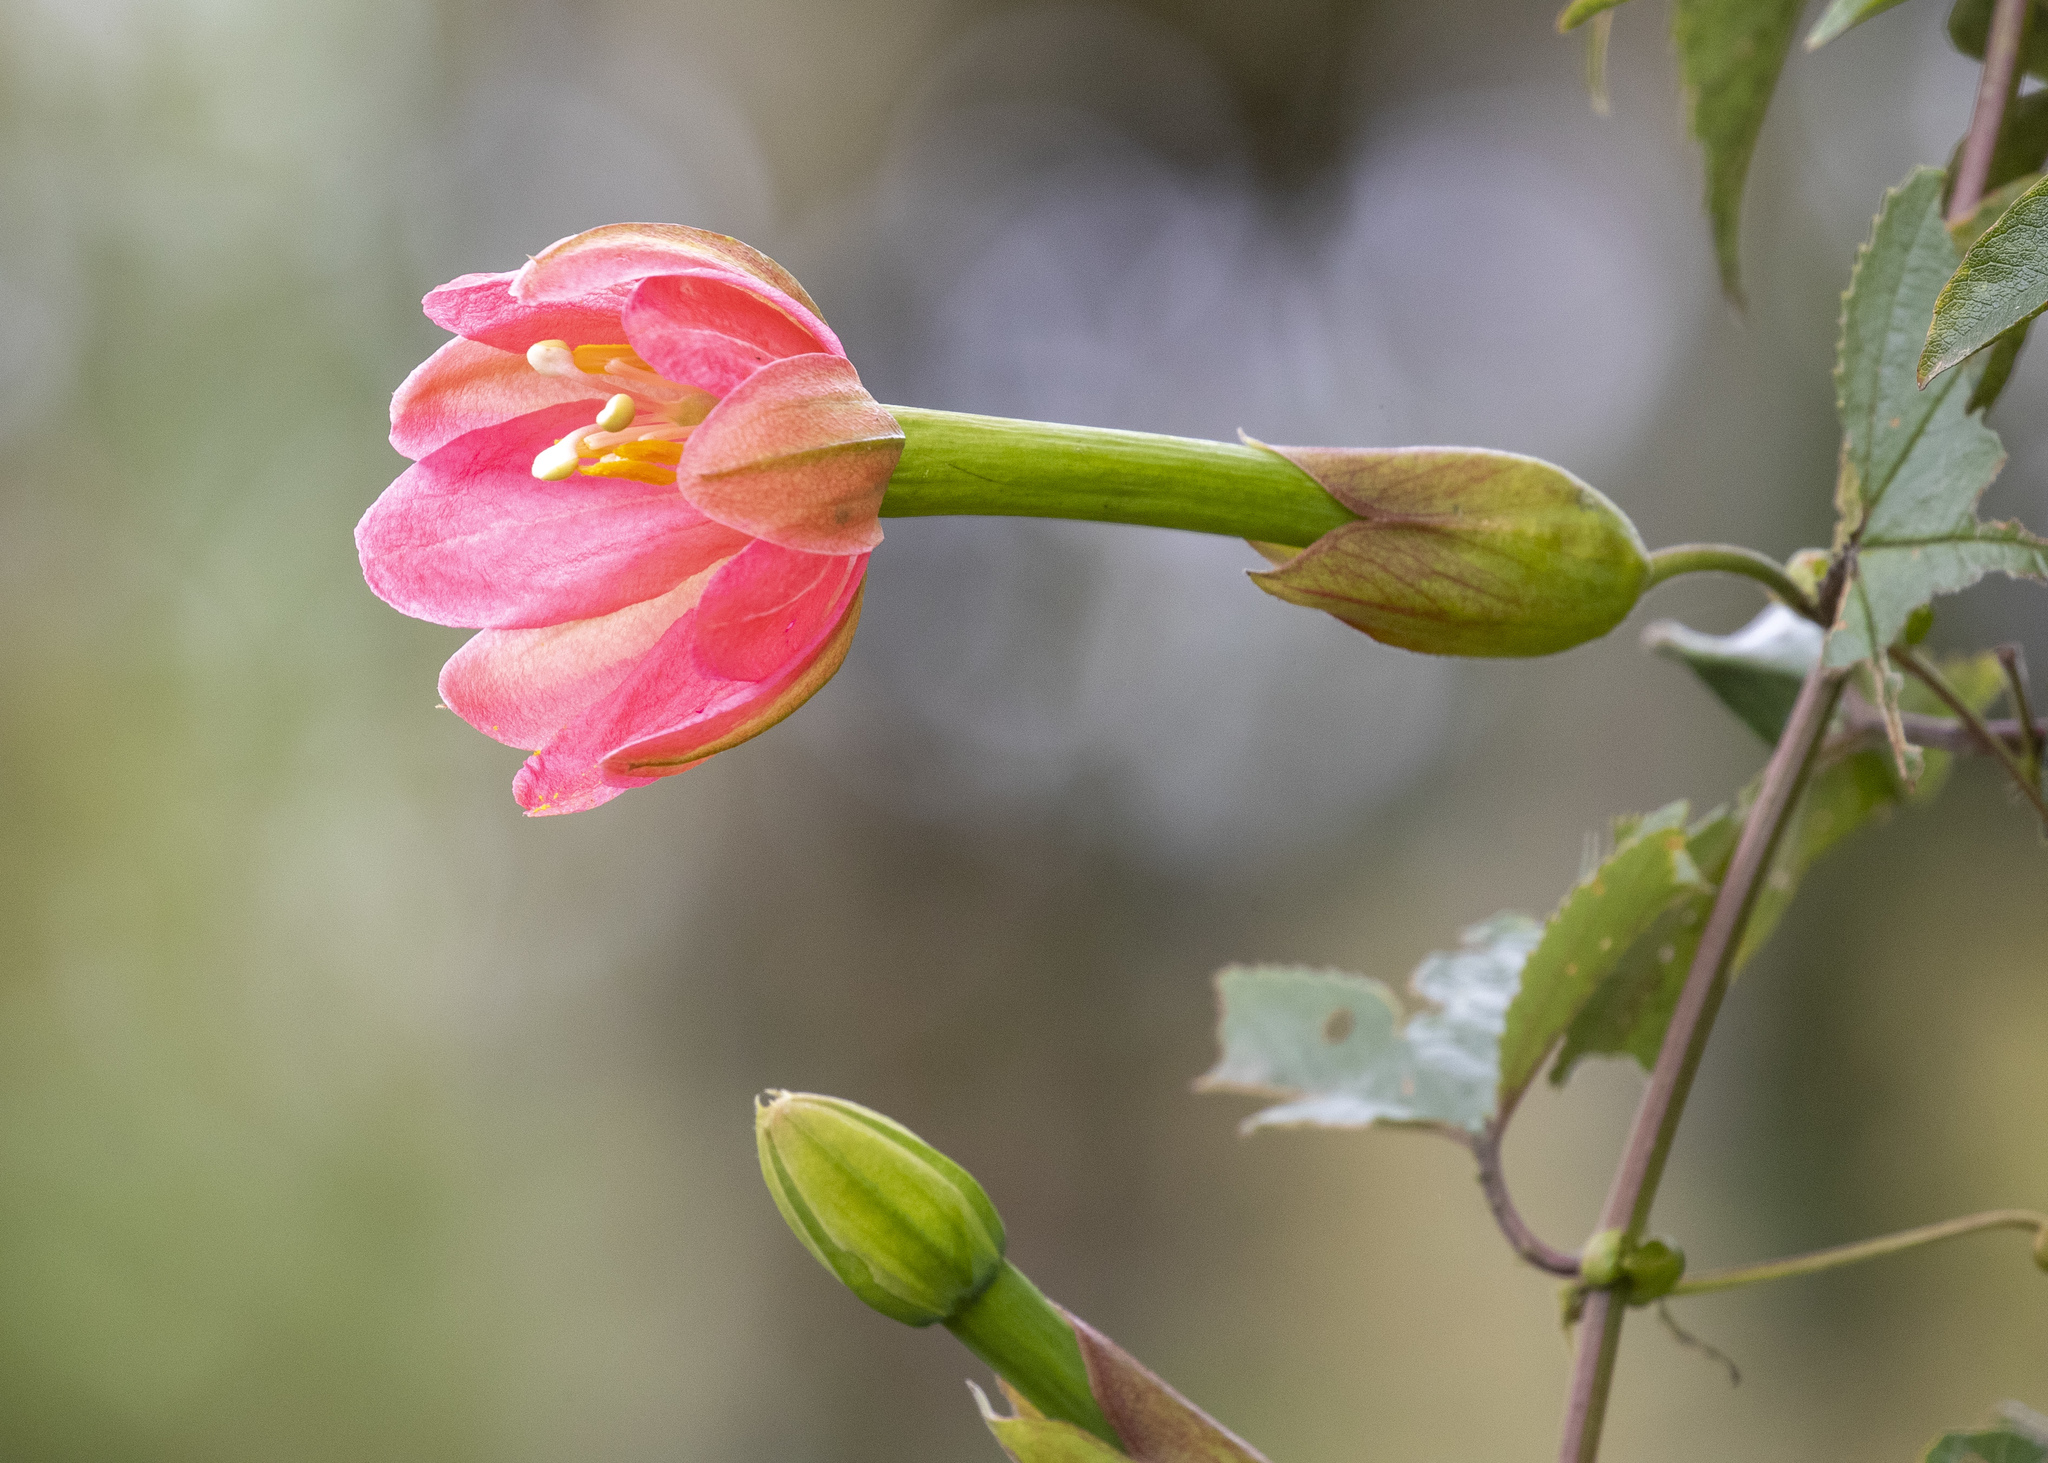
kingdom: Plantae
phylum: Tracheophyta
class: Magnoliopsida
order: Malpighiales
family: Passifloraceae
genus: Passiflora
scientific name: Passiflora mixta
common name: Passion flower
